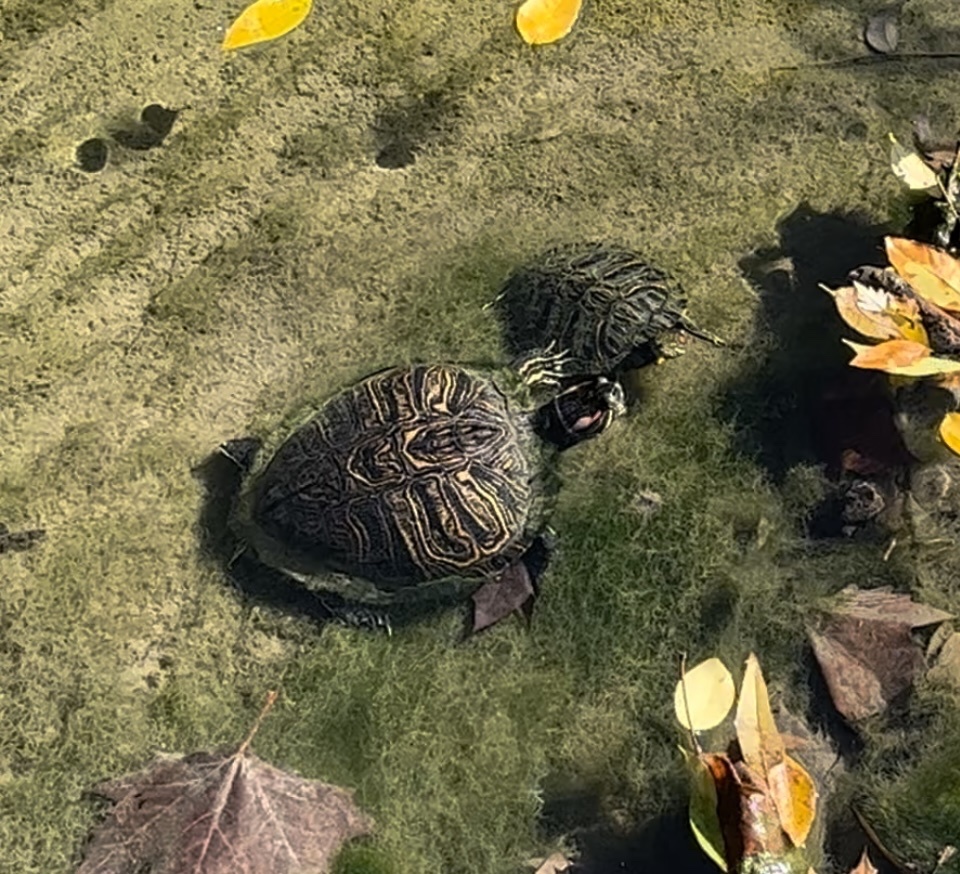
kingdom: Animalia
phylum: Chordata
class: Testudines
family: Emydidae
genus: Trachemys
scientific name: Trachemys scripta
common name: Slider
